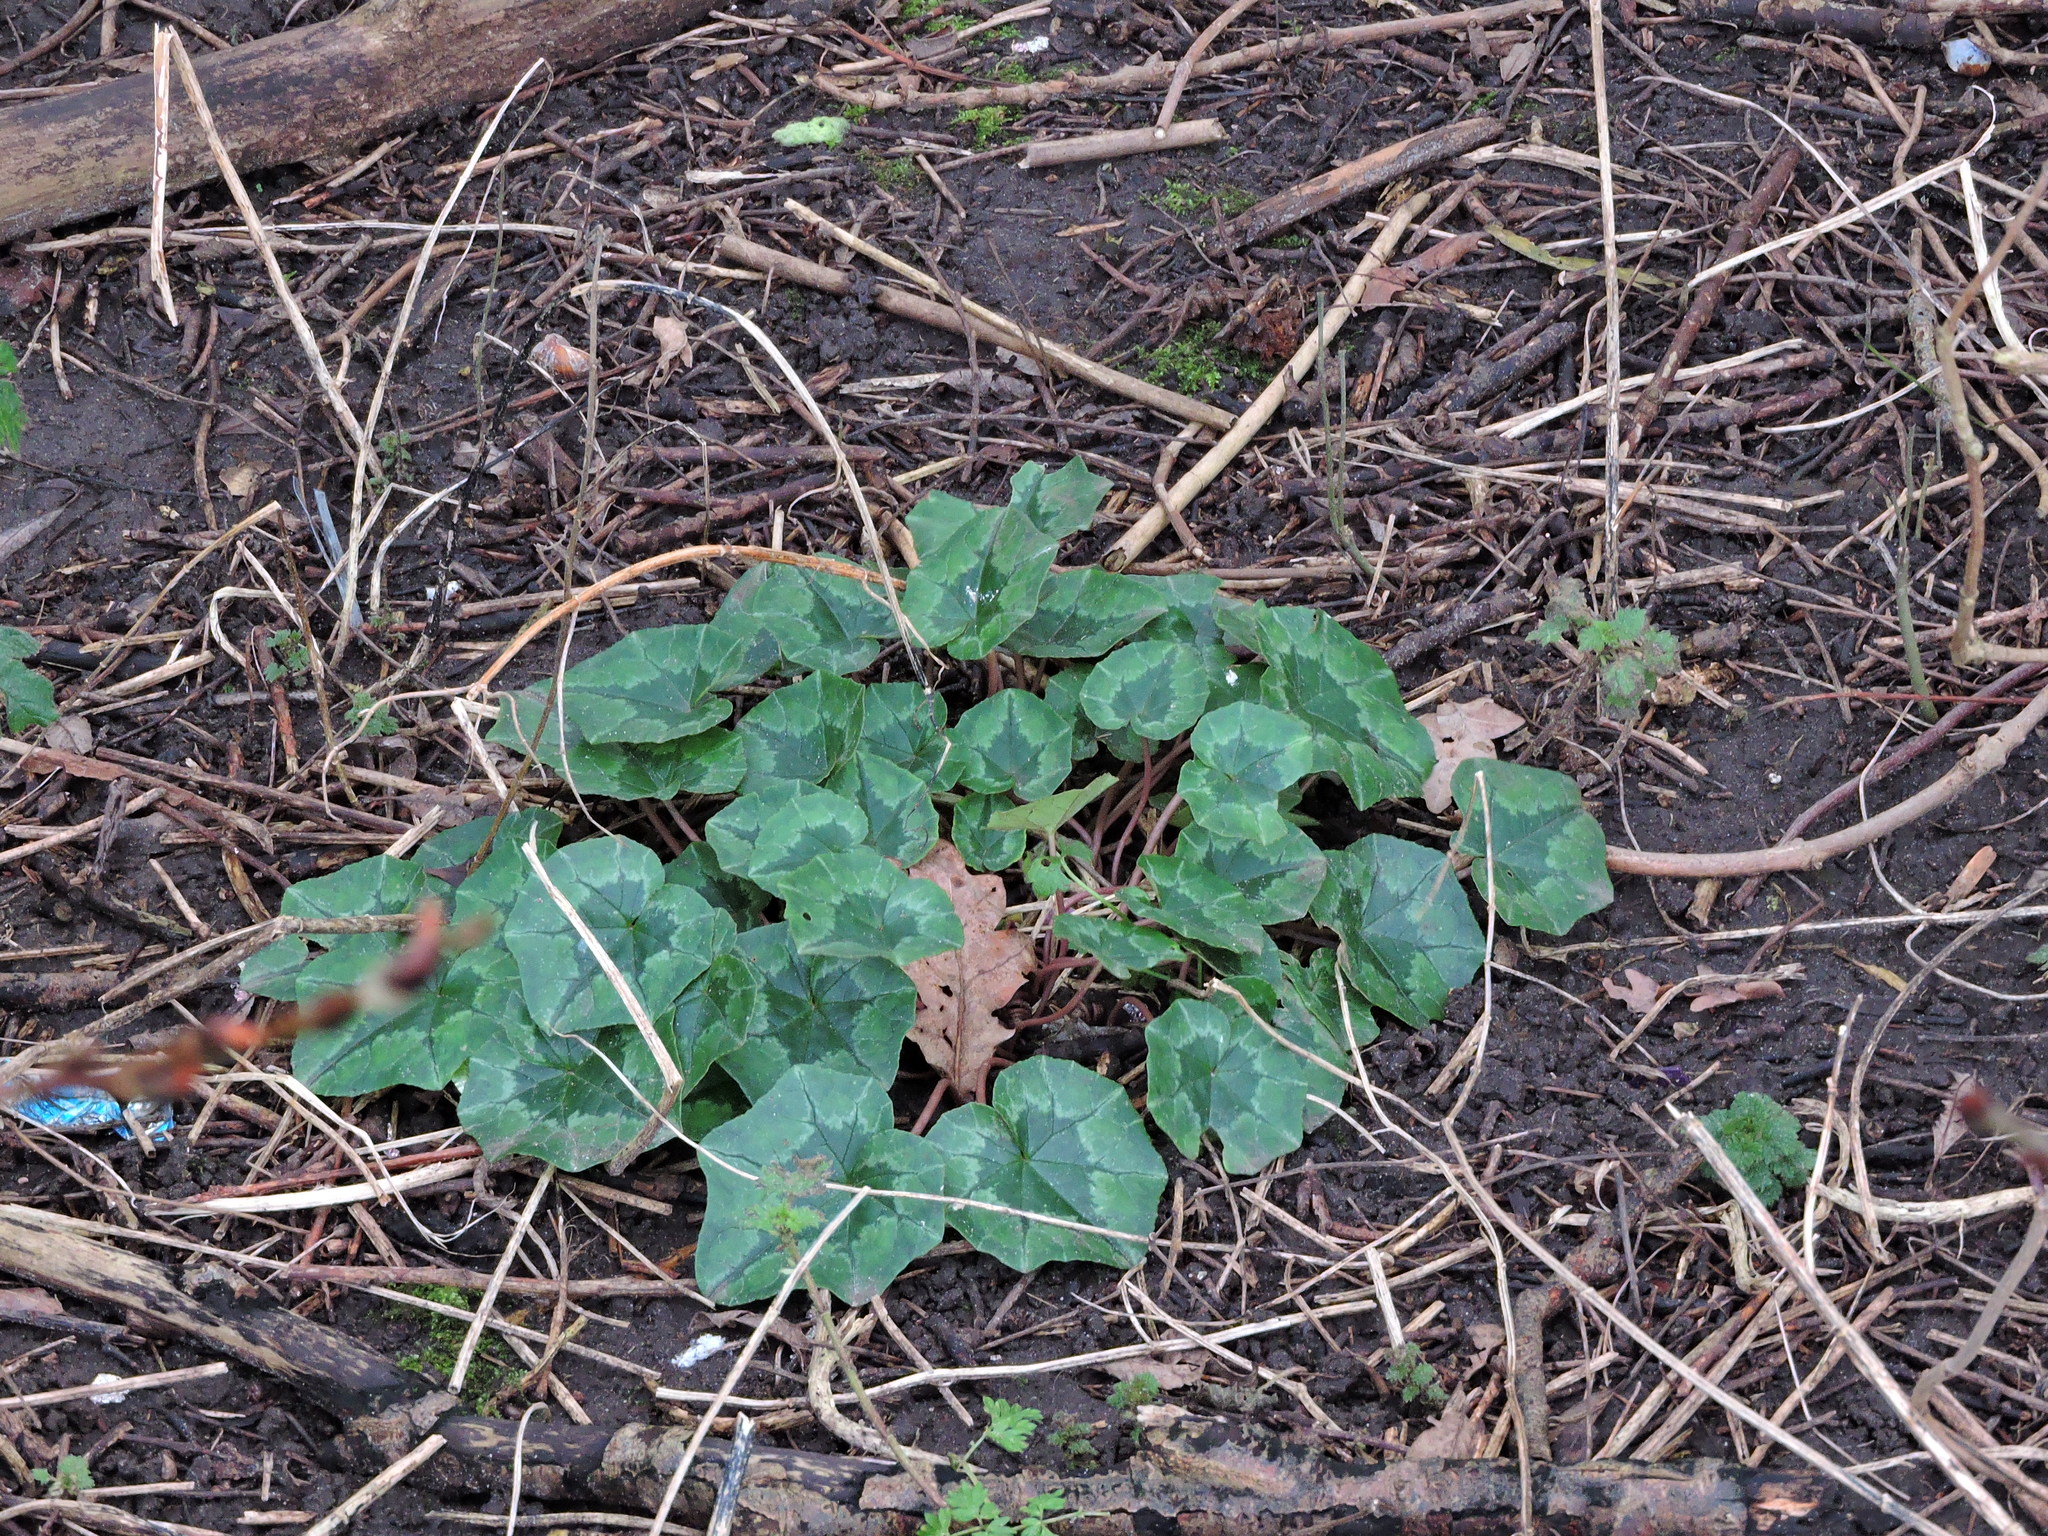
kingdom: Plantae
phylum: Tracheophyta
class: Magnoliopsida
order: Ericales
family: Primulaceae
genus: Cyclamen
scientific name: Cyclamen hederifolium
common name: Sowbread
